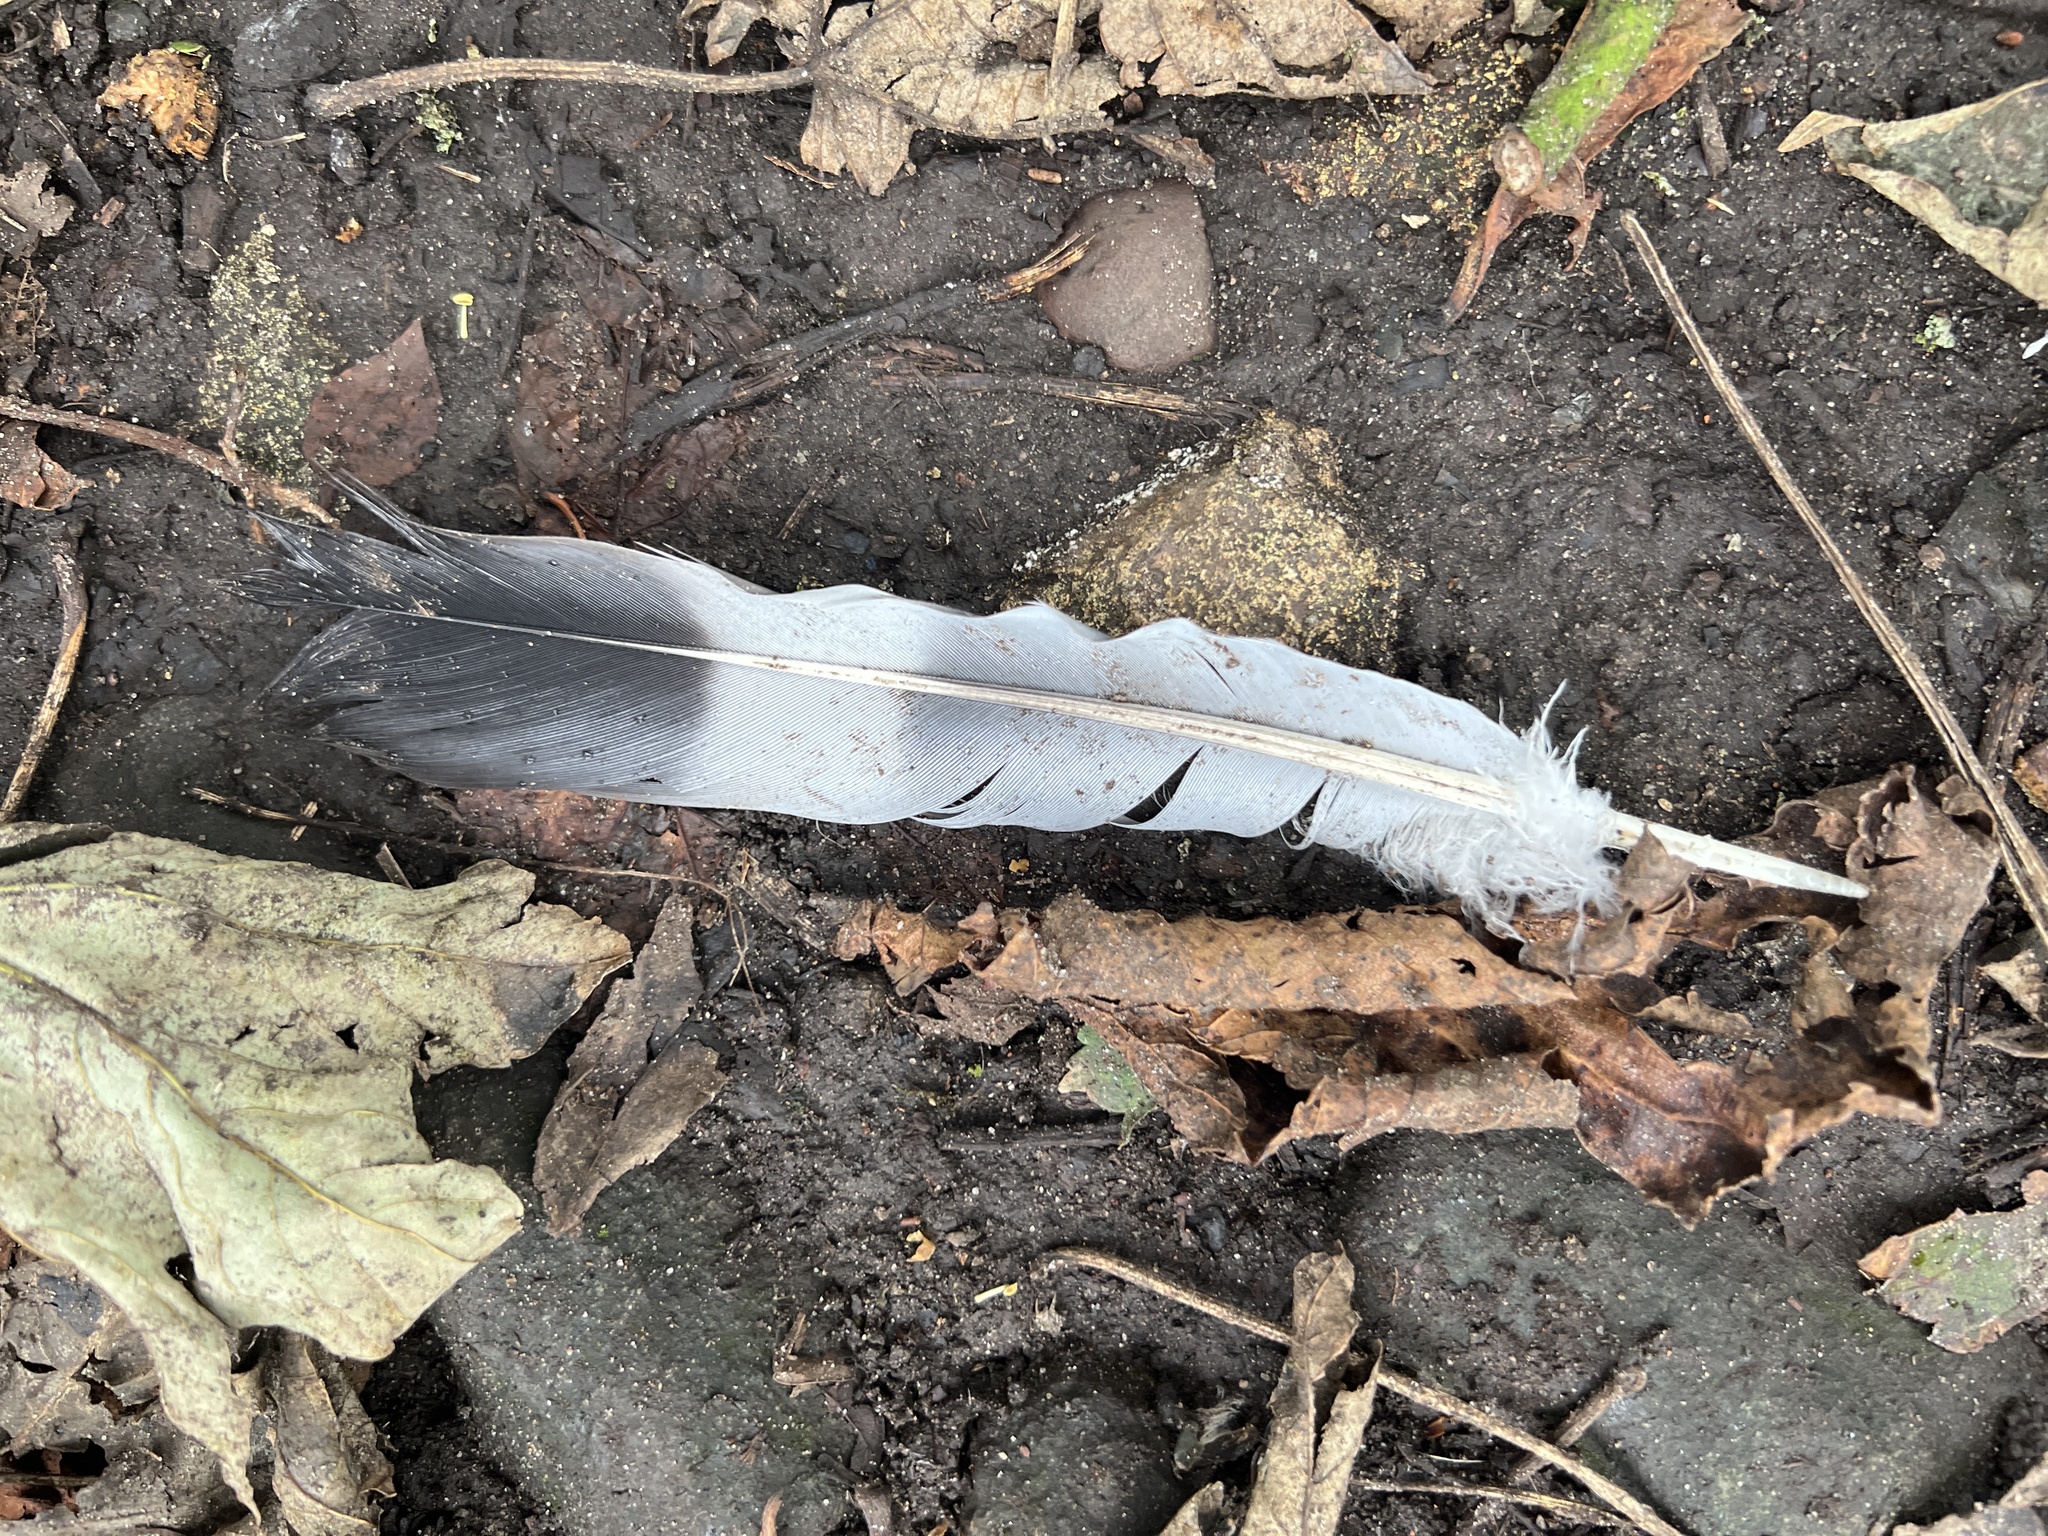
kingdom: Animalia
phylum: Chordata
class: Aves
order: Columbiformes
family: Columbidae
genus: Columba
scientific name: Columba palumbus
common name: Common wood pigeon
